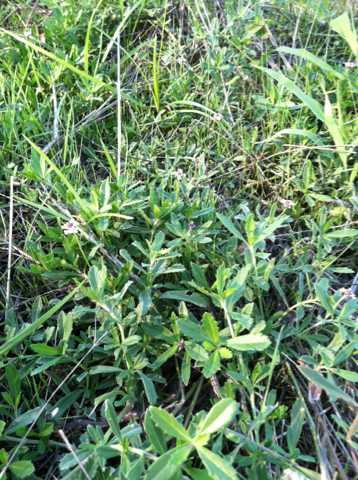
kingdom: Plantae
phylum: Tracheophyta
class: Magnoliopsida
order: Lamiales
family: Verbenaceae
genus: Phyla
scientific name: Phyla nodiflora
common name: Frogfruit
